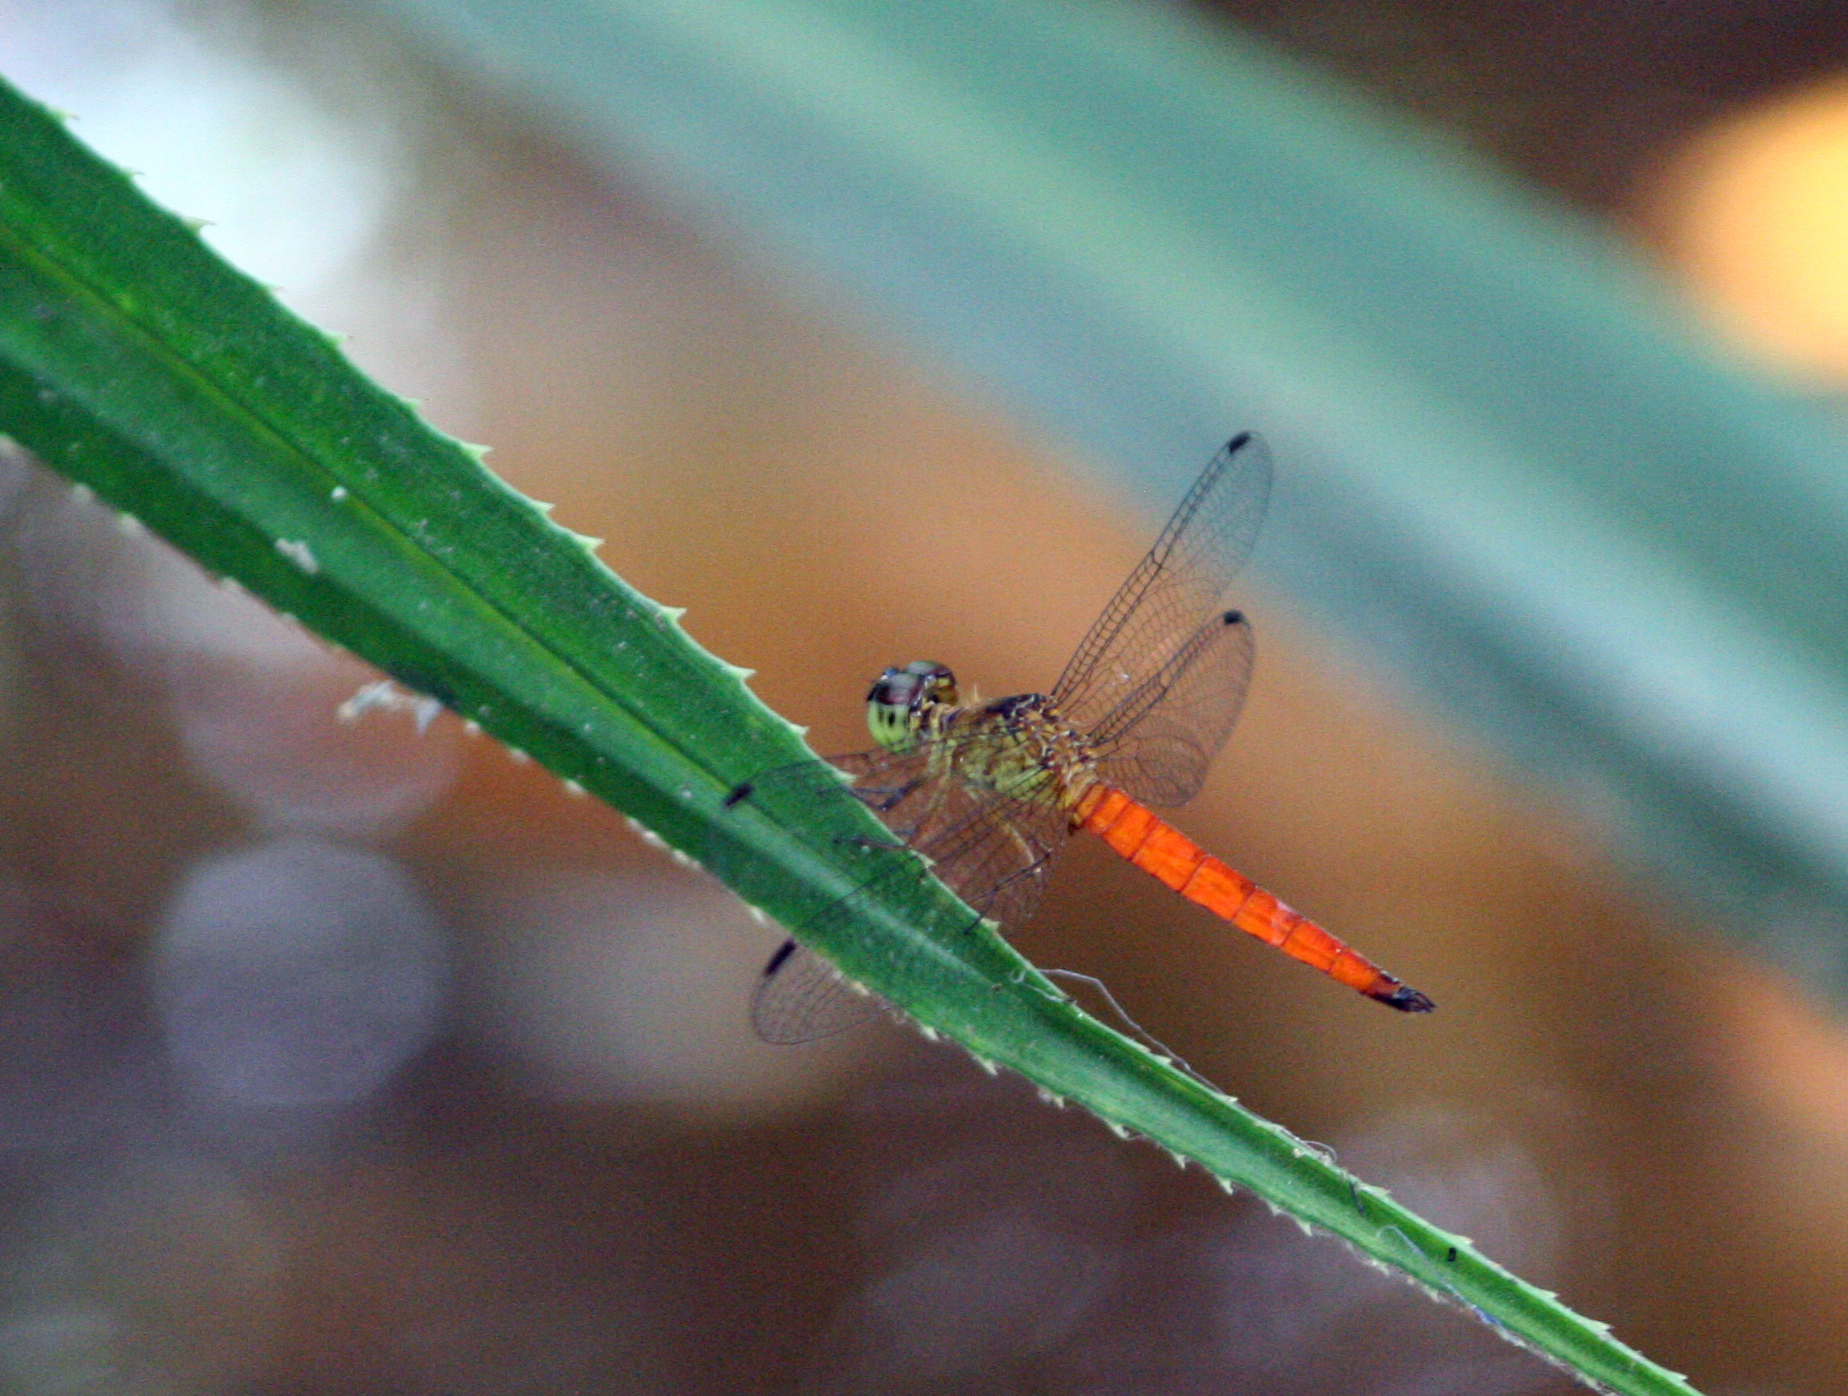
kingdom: Animalia
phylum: Arthropoda
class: Insecta
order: Odonata
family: Libellulidae
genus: Orchithemis
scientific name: Orchithemis pulcherrima
